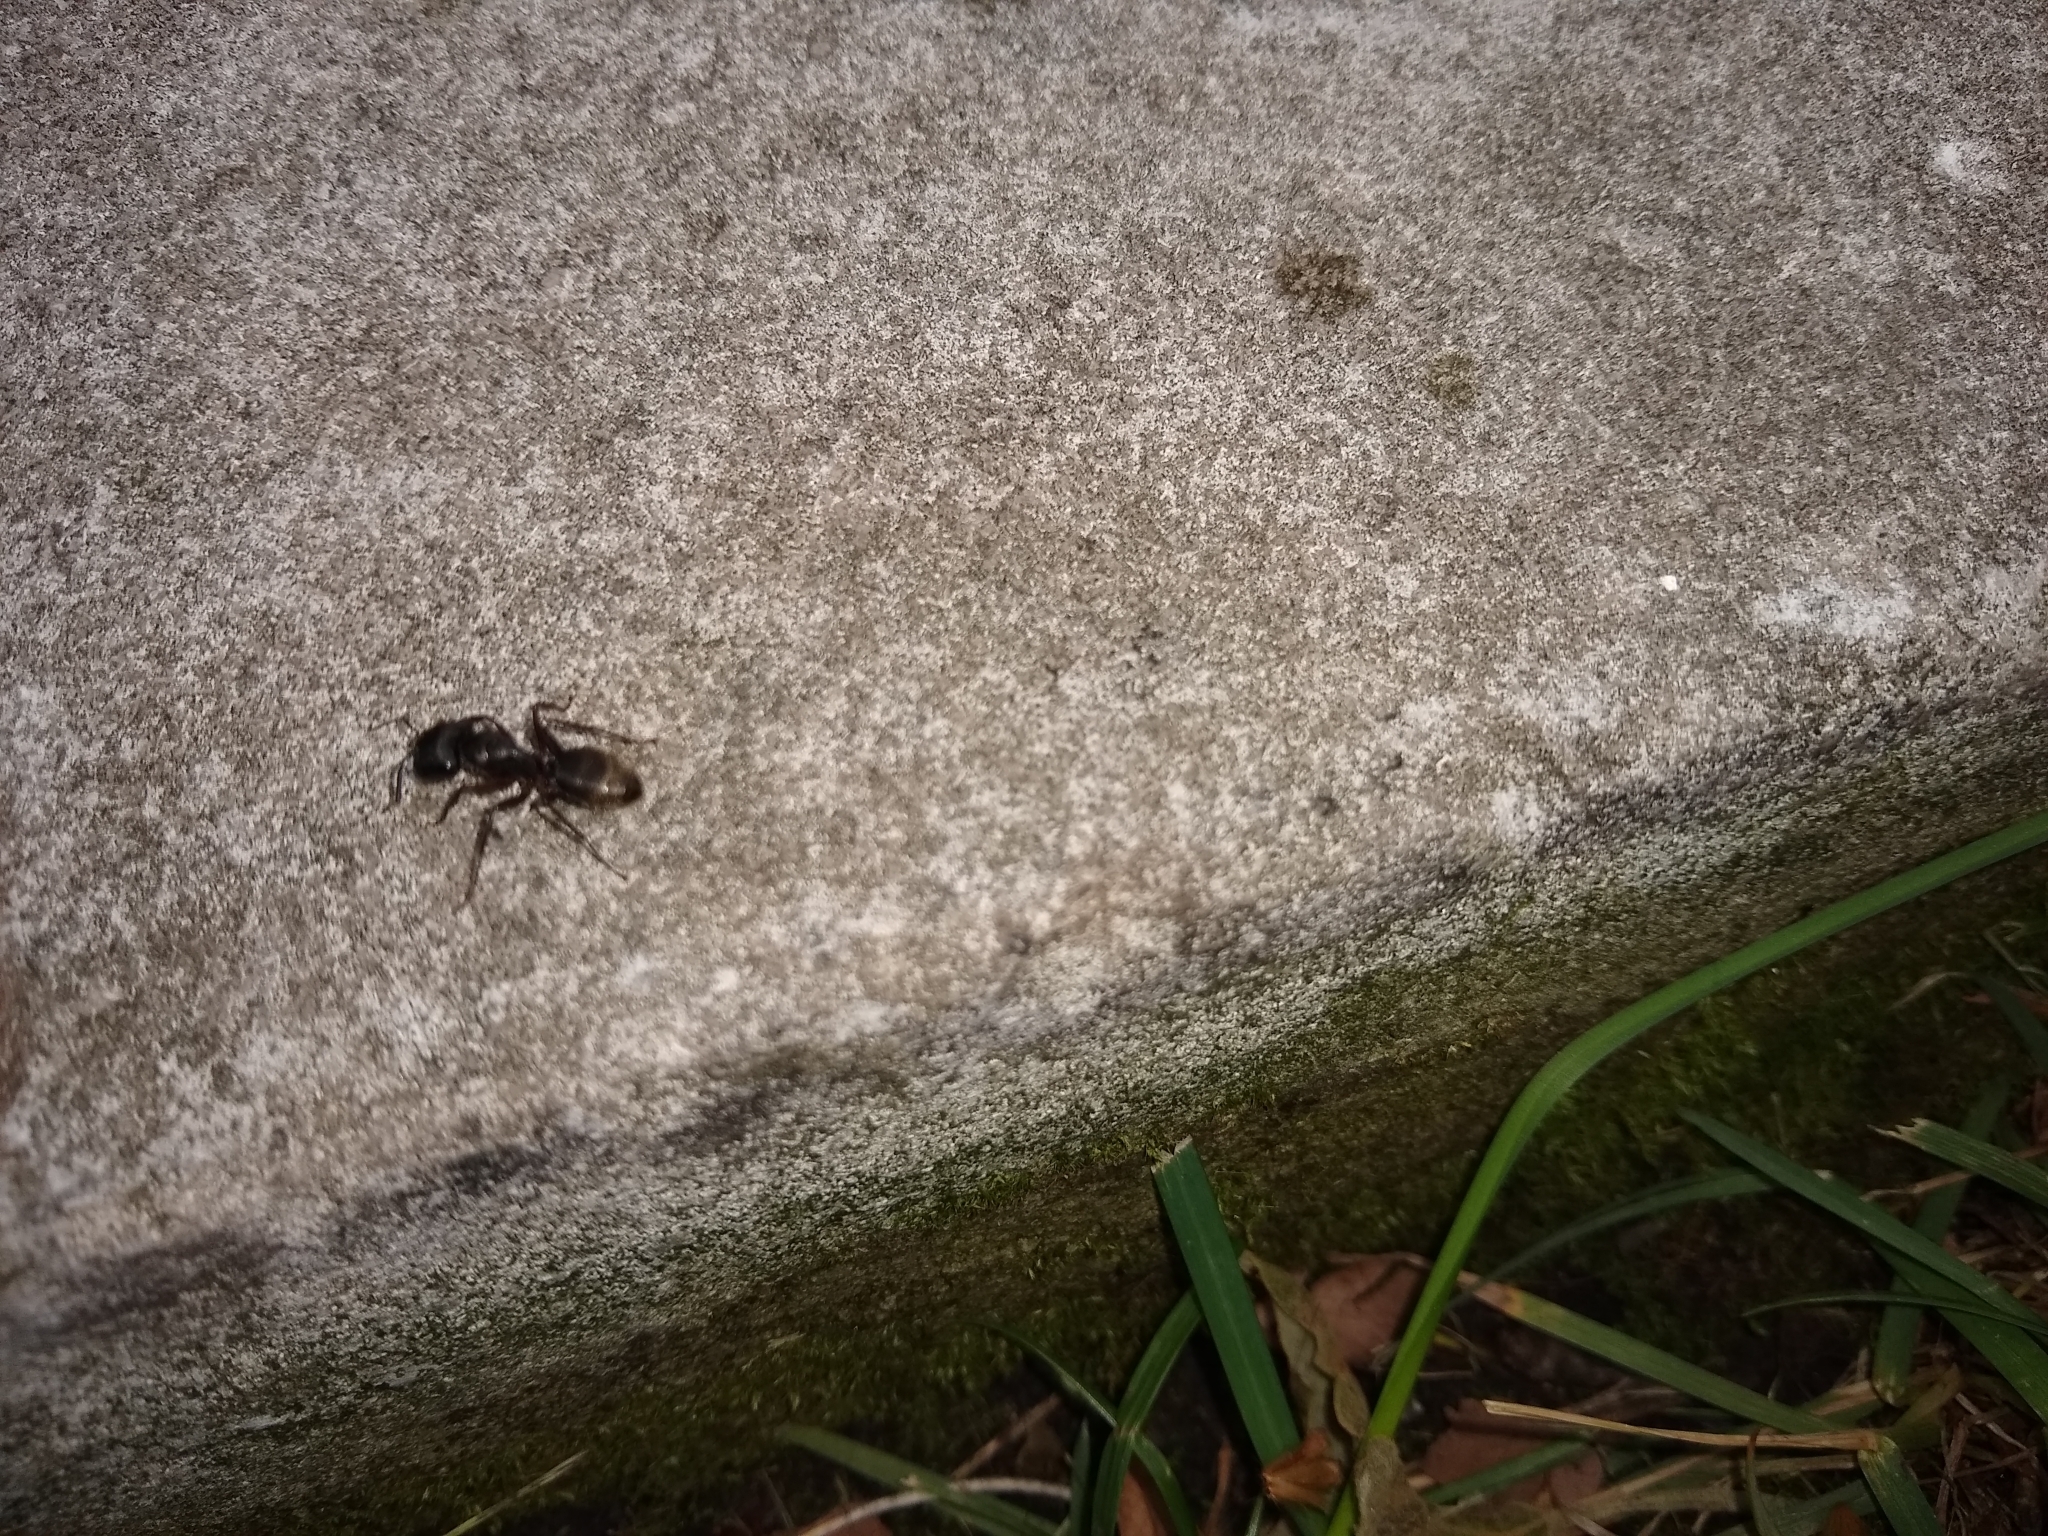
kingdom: Animalia
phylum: Arthropoda
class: Insecta
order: Hymenoptera
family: Formicidae
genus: Camponotus
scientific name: Camponotus pennsylvanicus
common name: Black carpenter ant
